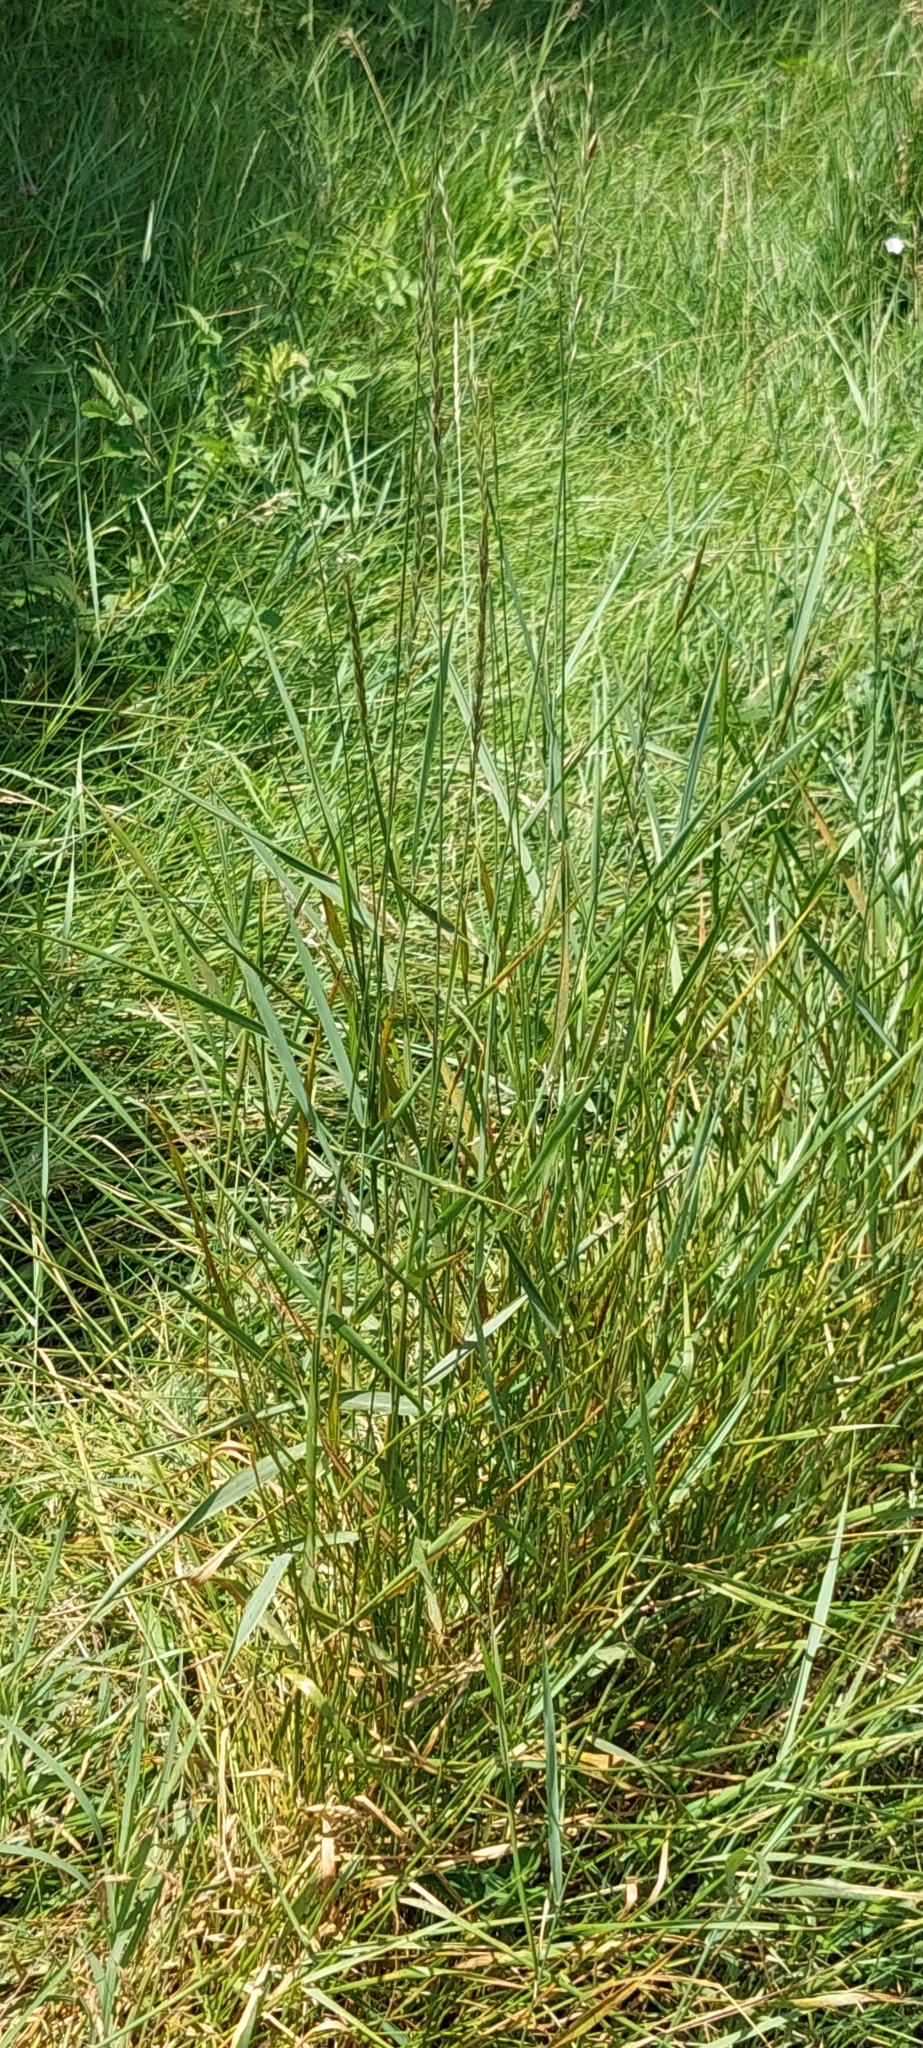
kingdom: Plantae
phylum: Tracheophyta
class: Liliopsida
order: Poales
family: Poaceae
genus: Elymus
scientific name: Elymus repens
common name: Quackgrass
